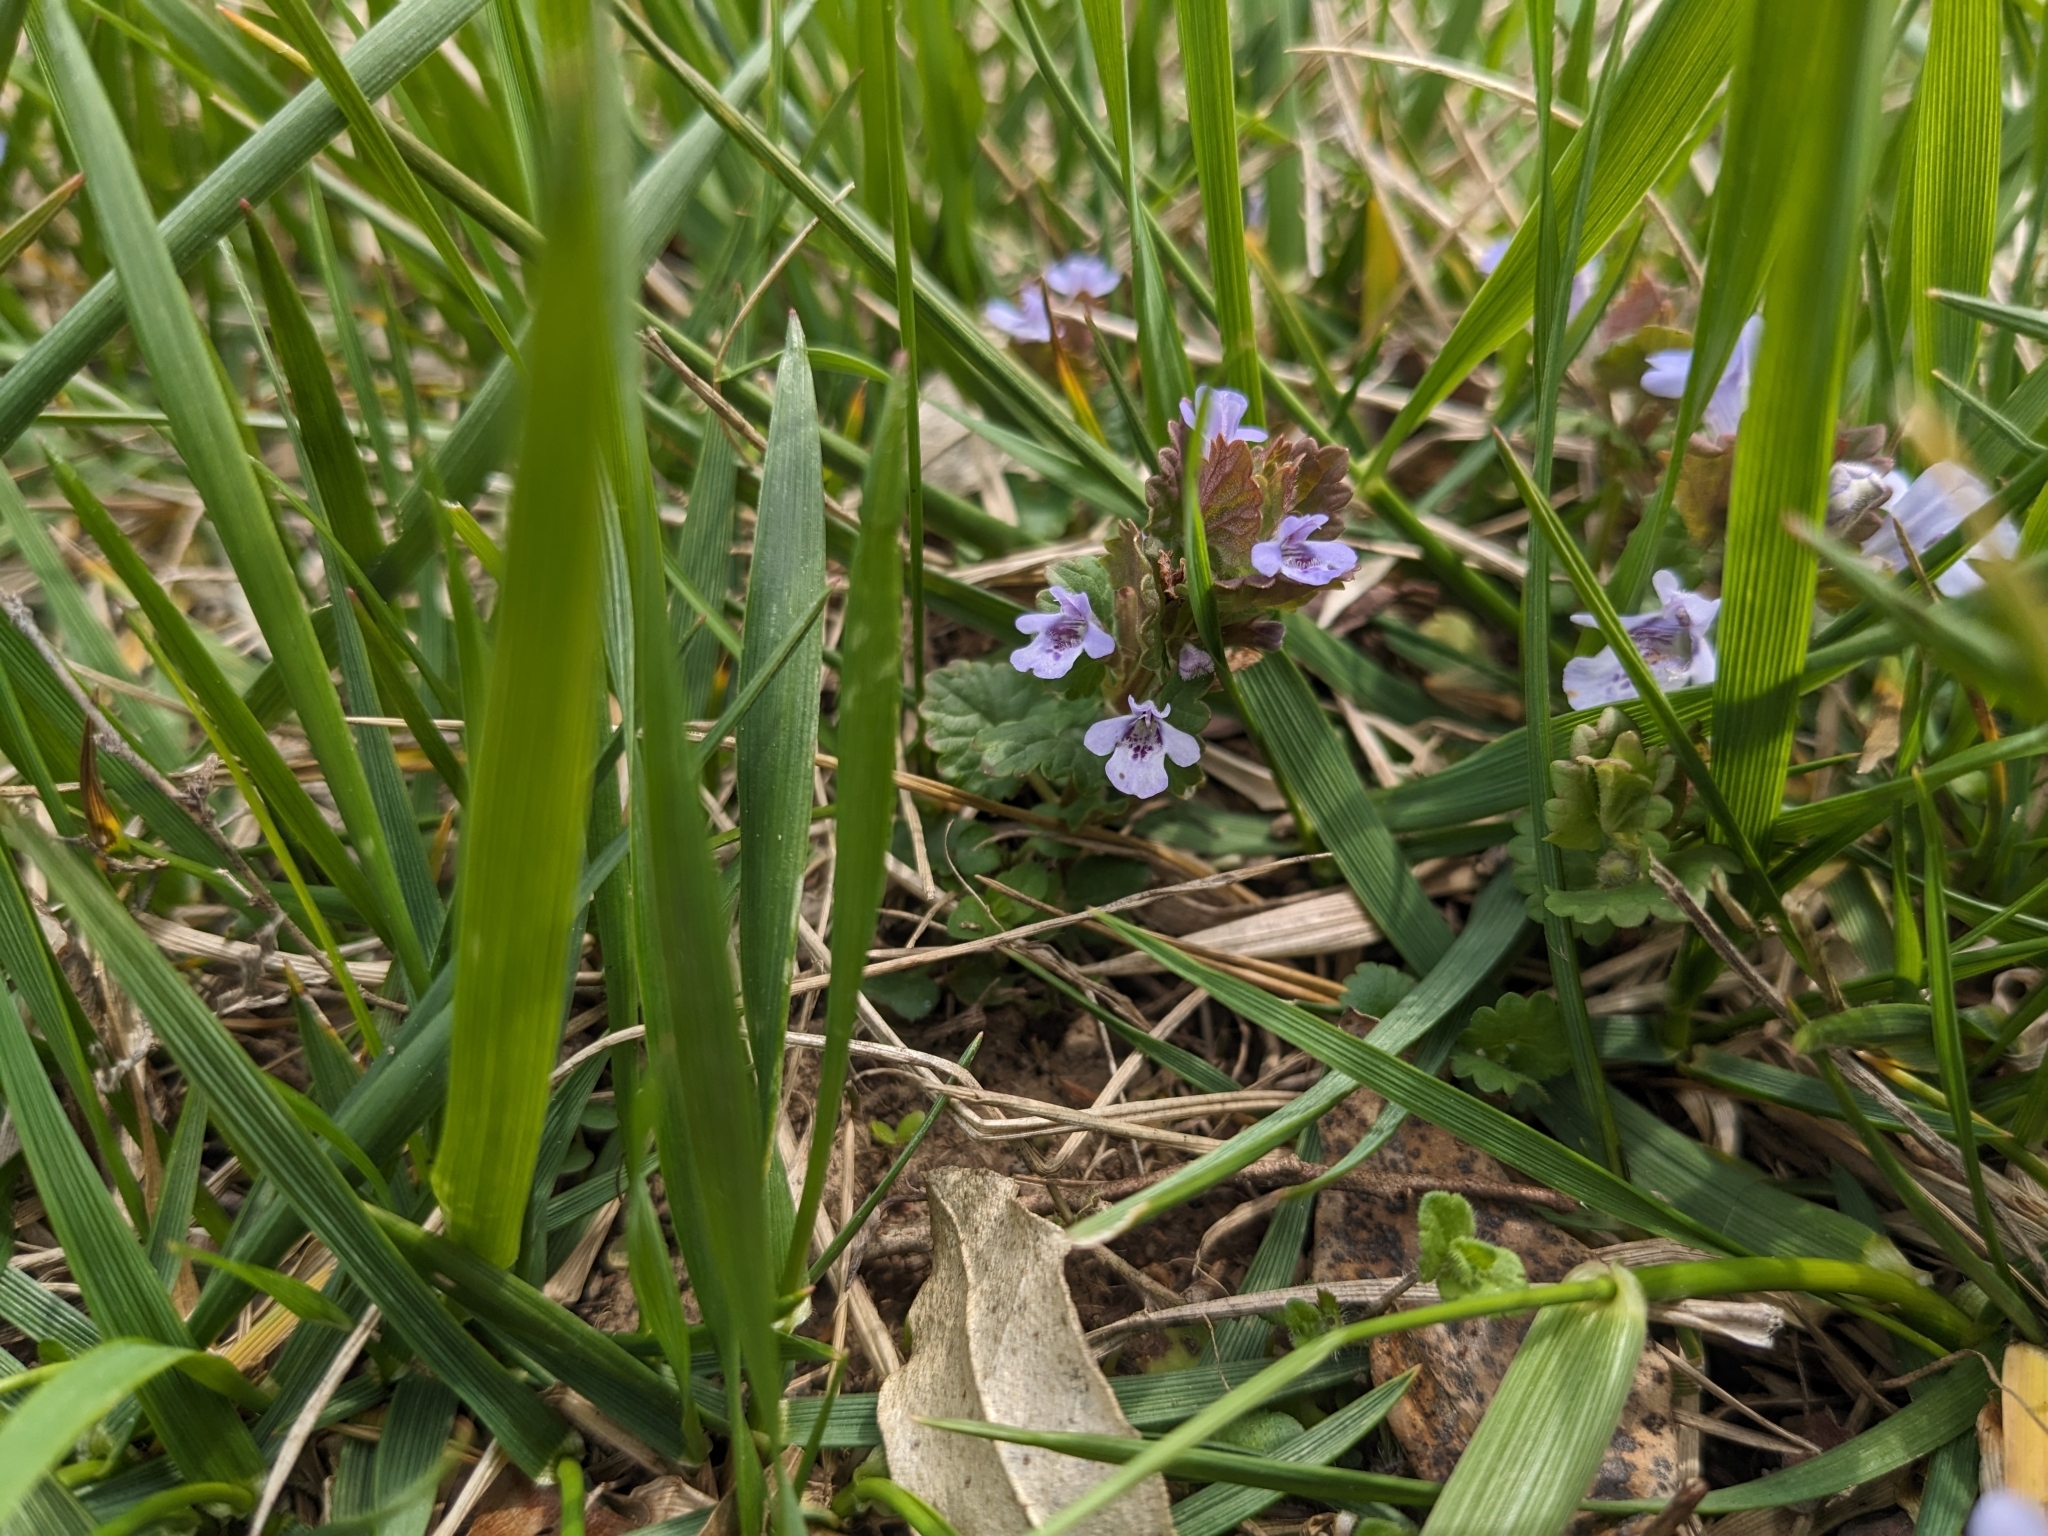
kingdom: Plantae
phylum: Tracheophyta
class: Magnoliopsida
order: Lamiales
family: Lamiaceae
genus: Glechoma
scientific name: Glechoma hederacea
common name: Ground ivy
